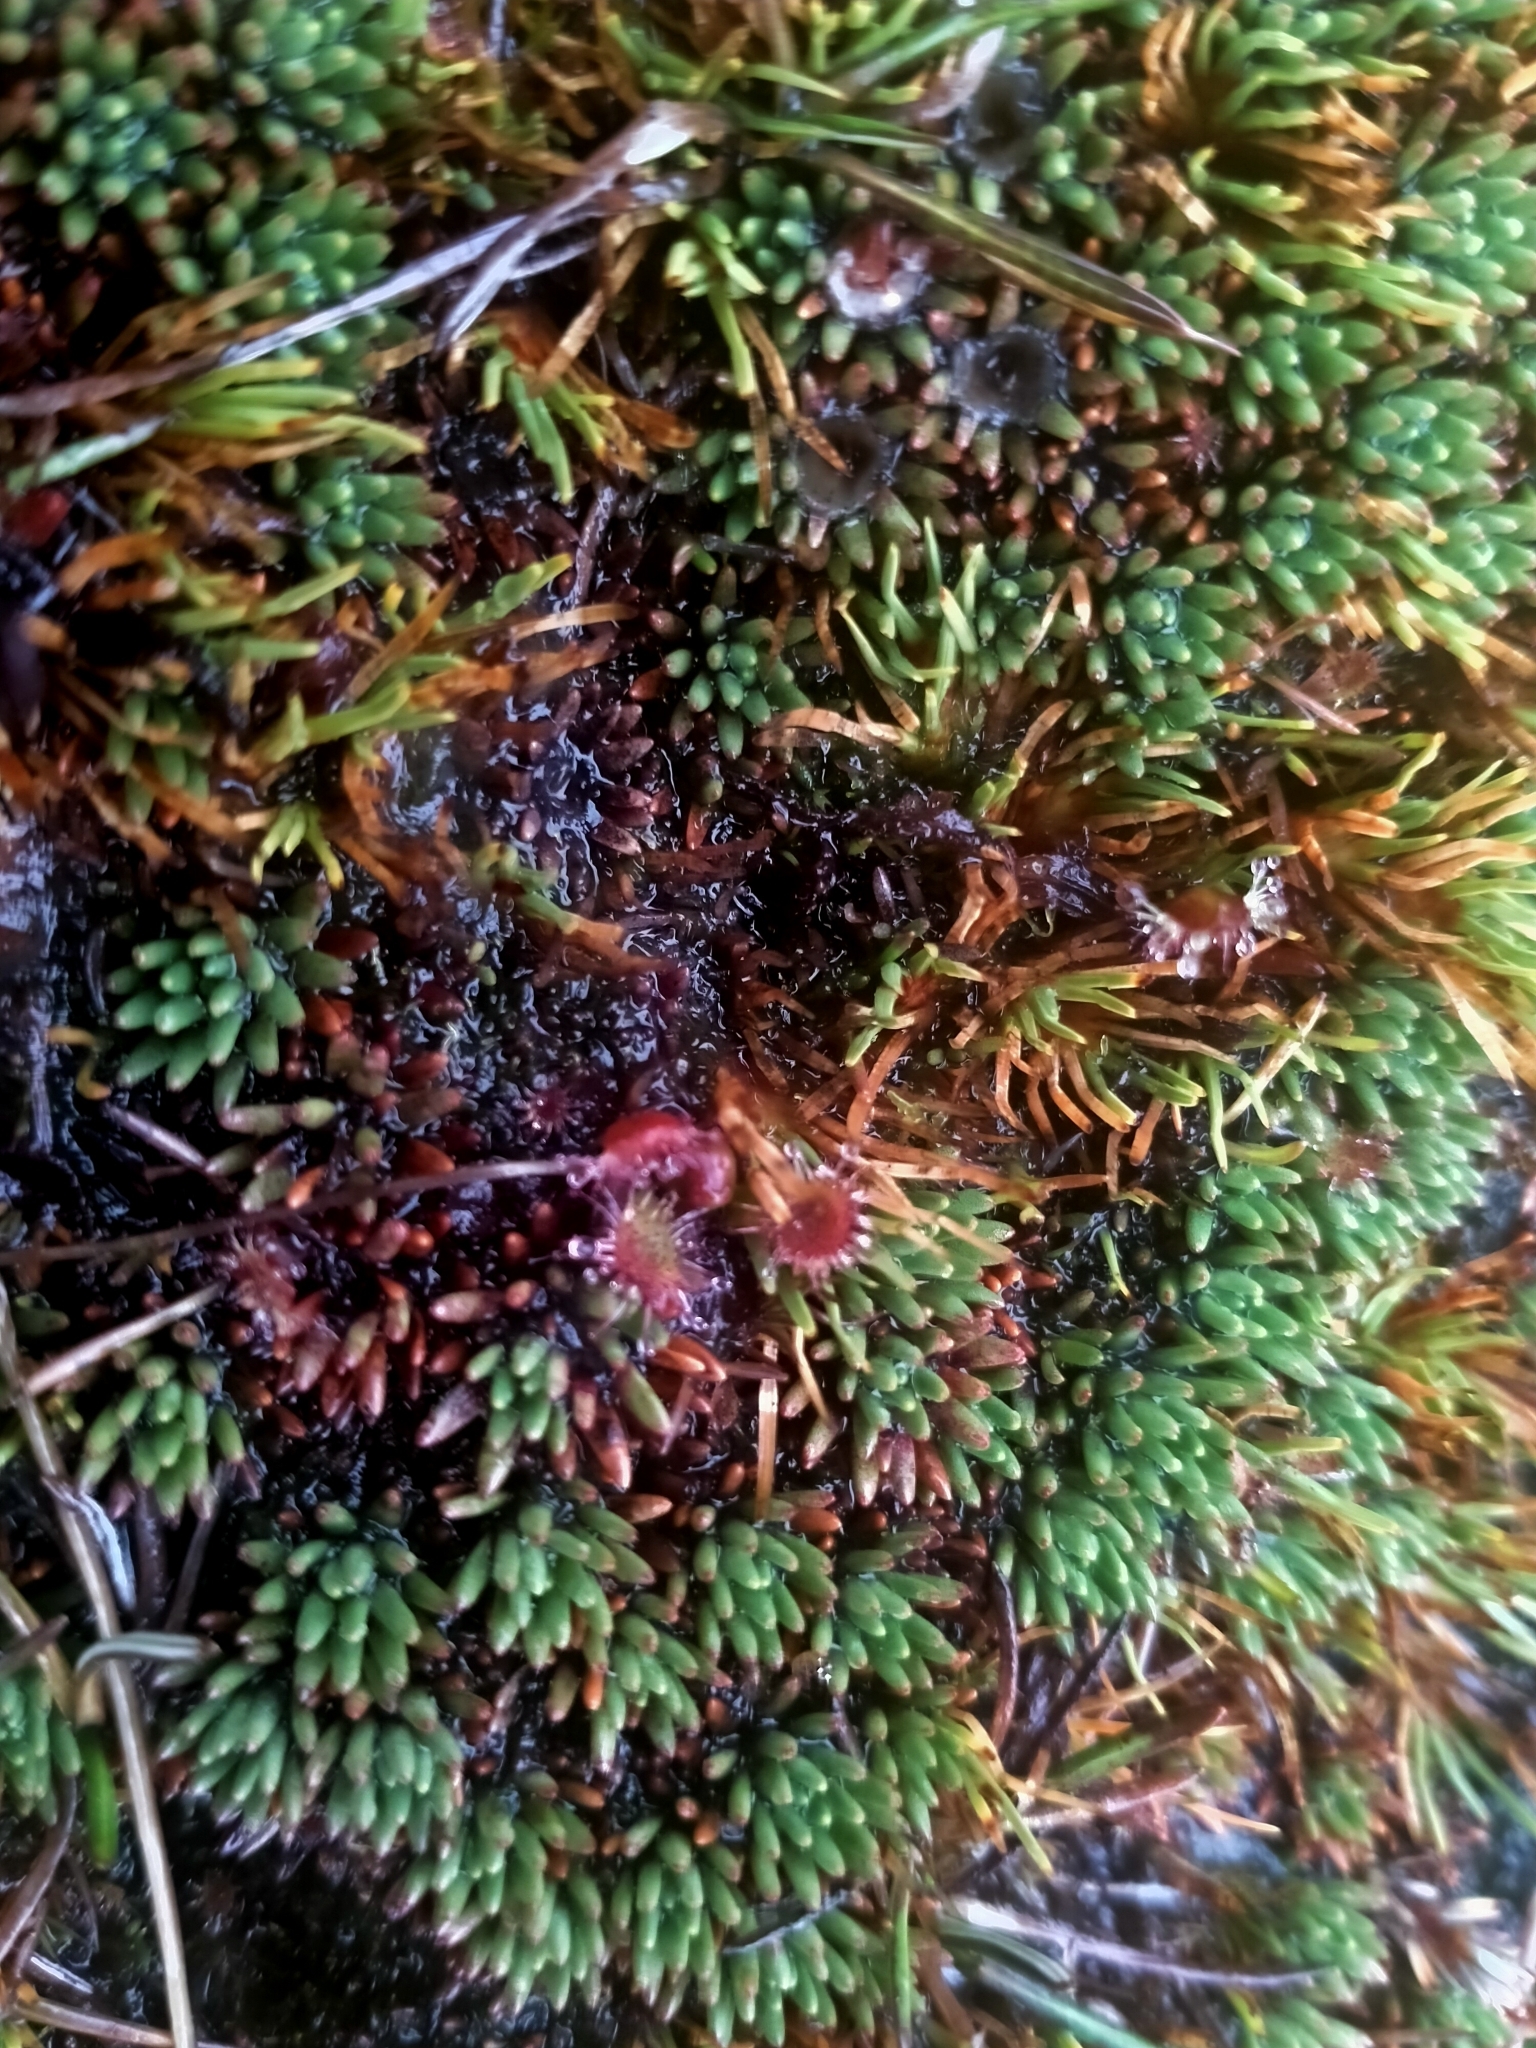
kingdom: Plantae
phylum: Tracheophyta
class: Magnoliopsida
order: Asterales
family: Stylidiaceae
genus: Donatia
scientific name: Donatia novae-zelandiae
